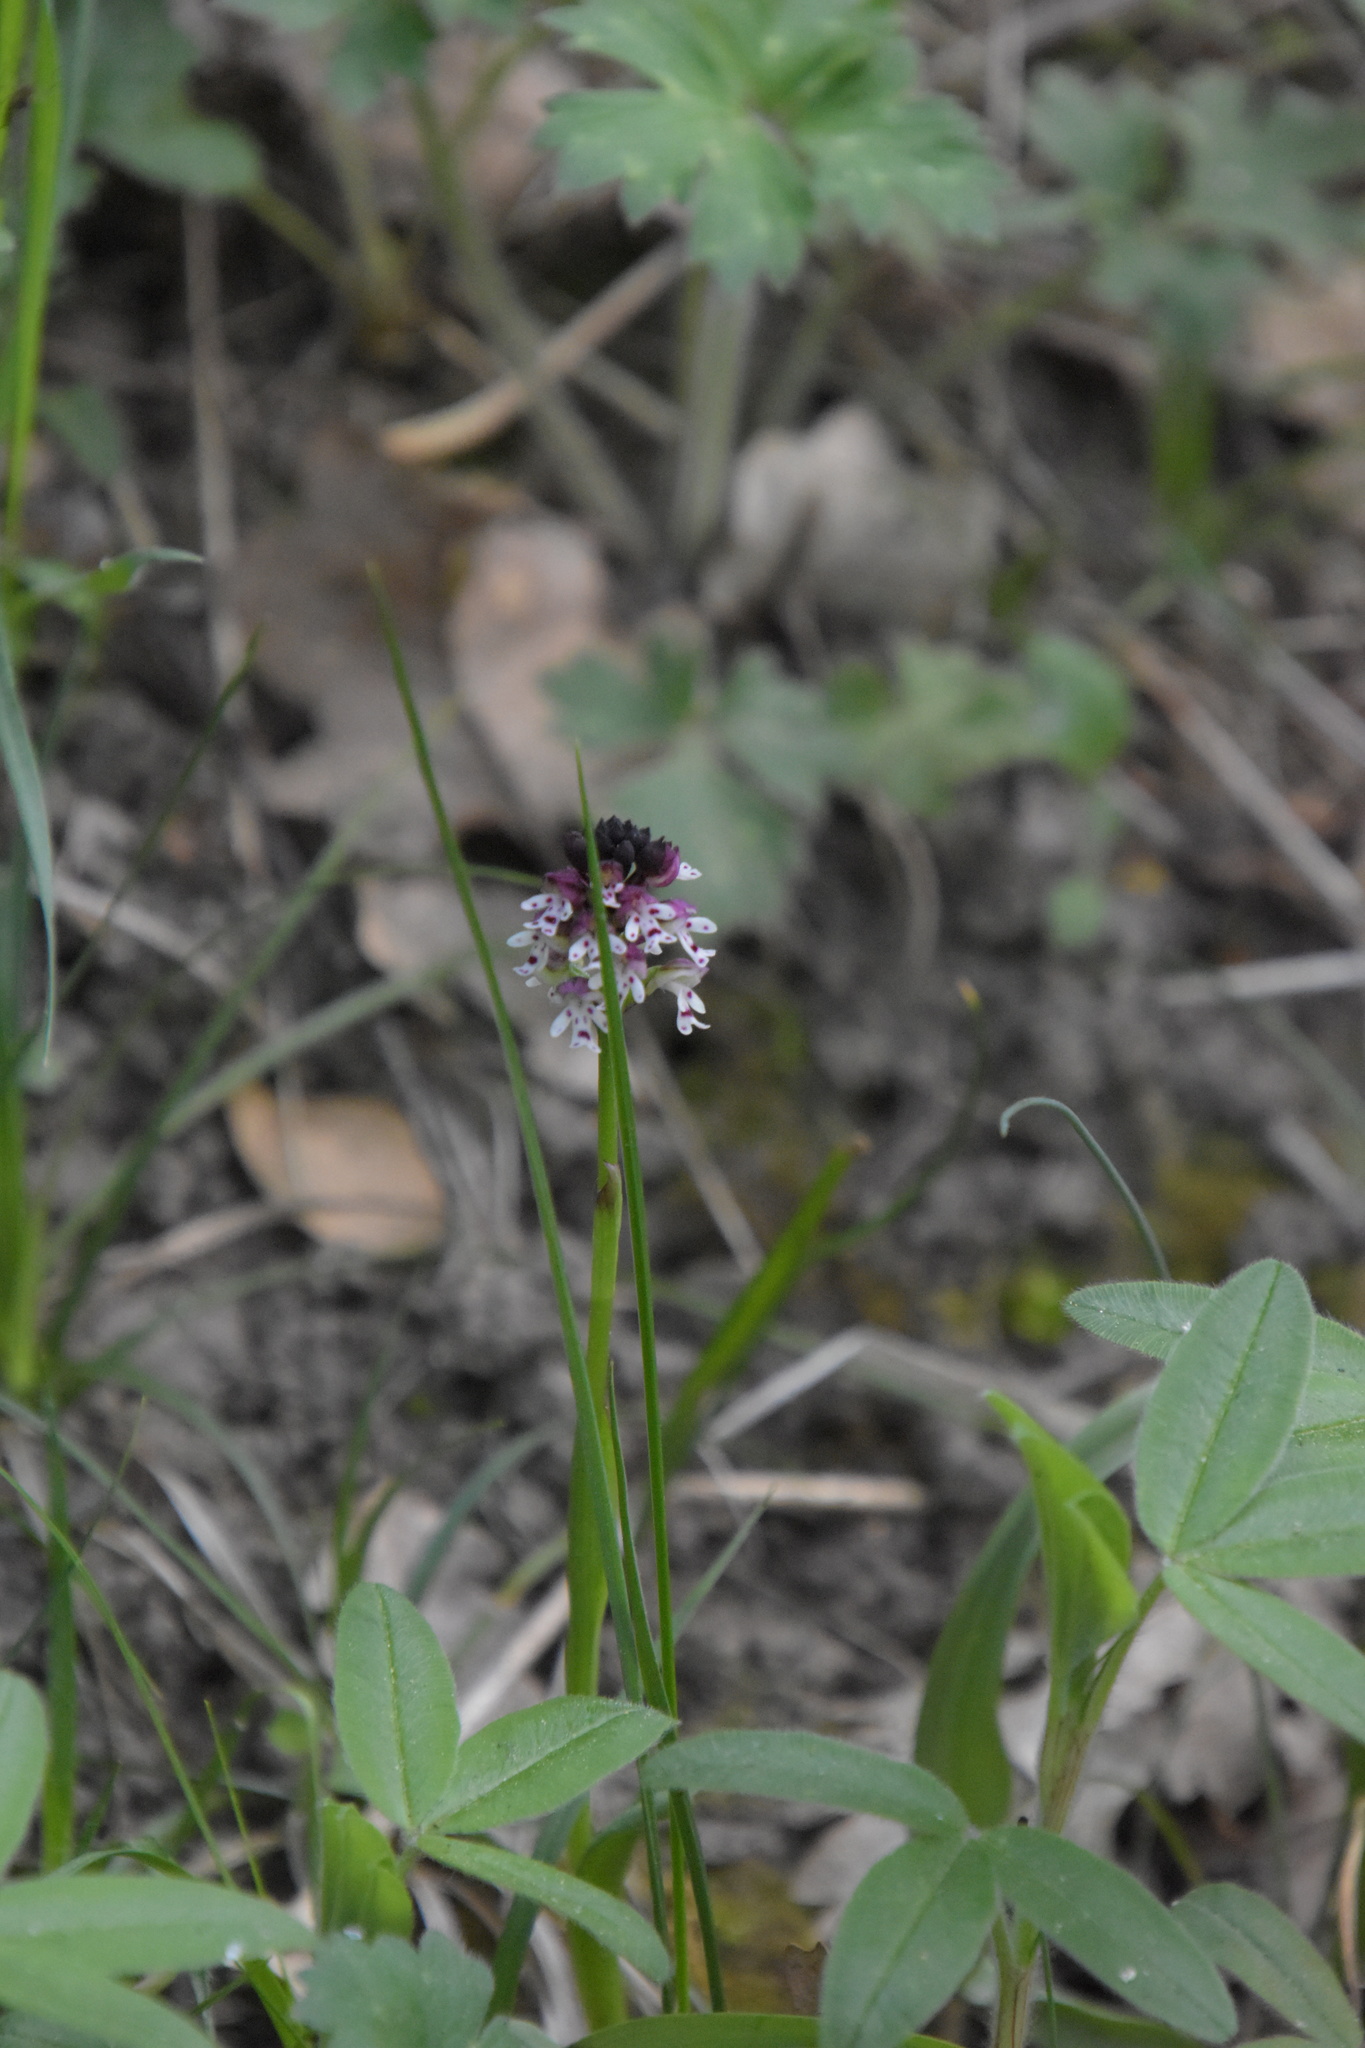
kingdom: Plantae
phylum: Tracheophyta
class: Liliopsida
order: Asparagales
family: Orchidaceae
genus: Neotinea
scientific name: Neotinea ustulata
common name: Burnt orchid
